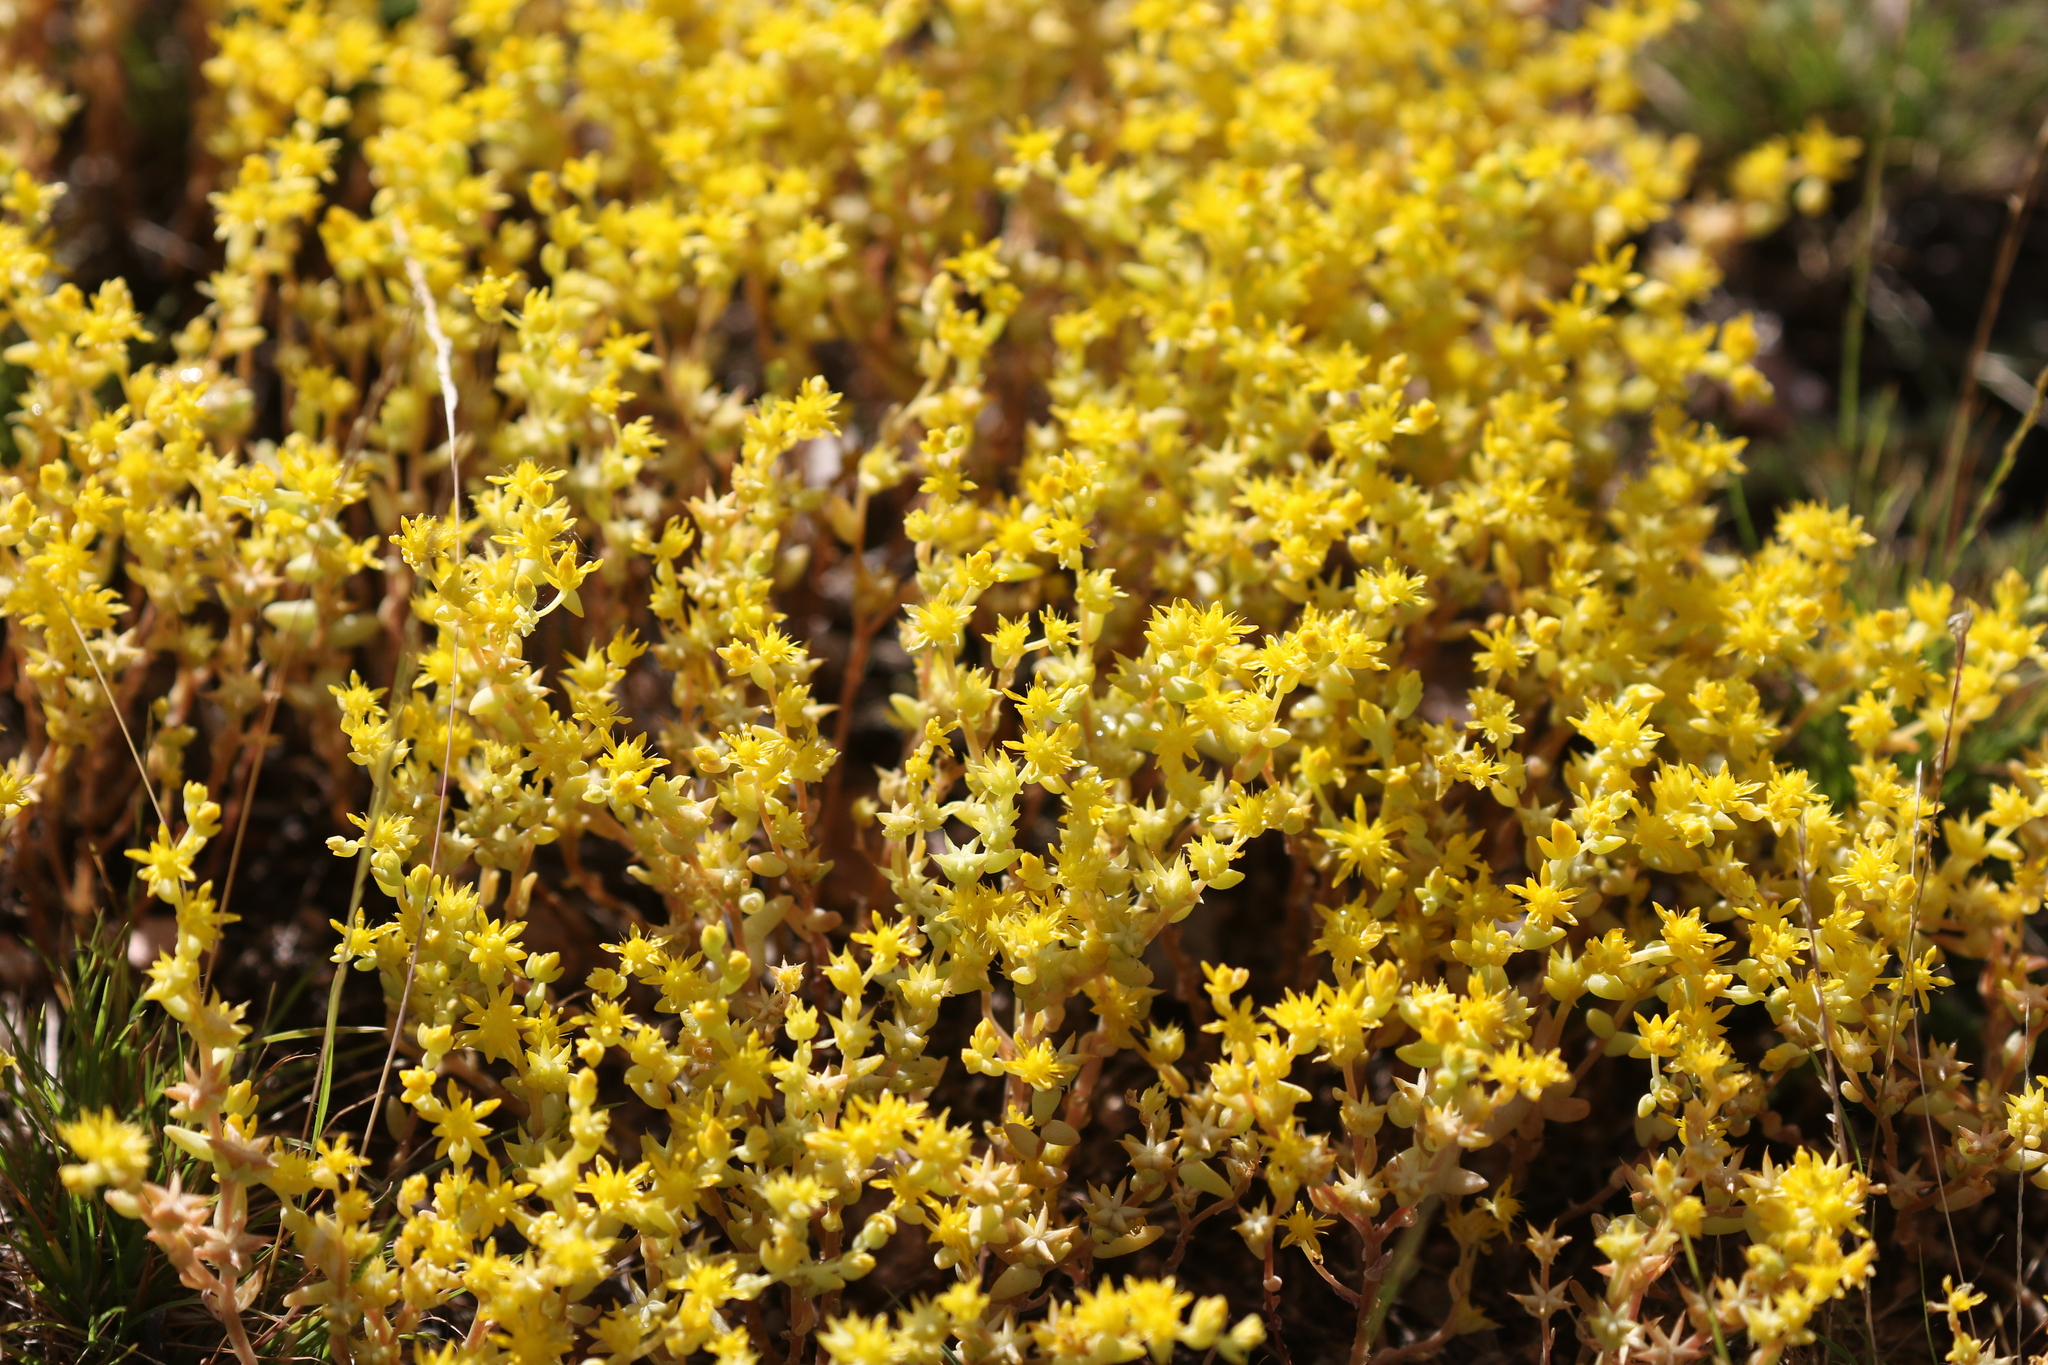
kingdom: Plantae
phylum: Tracheophyta
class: Magnoliopsida
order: Saxifragales
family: Crassulaceae
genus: Sedum
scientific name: Sedum nuttallii
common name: Yellow stonecrop
